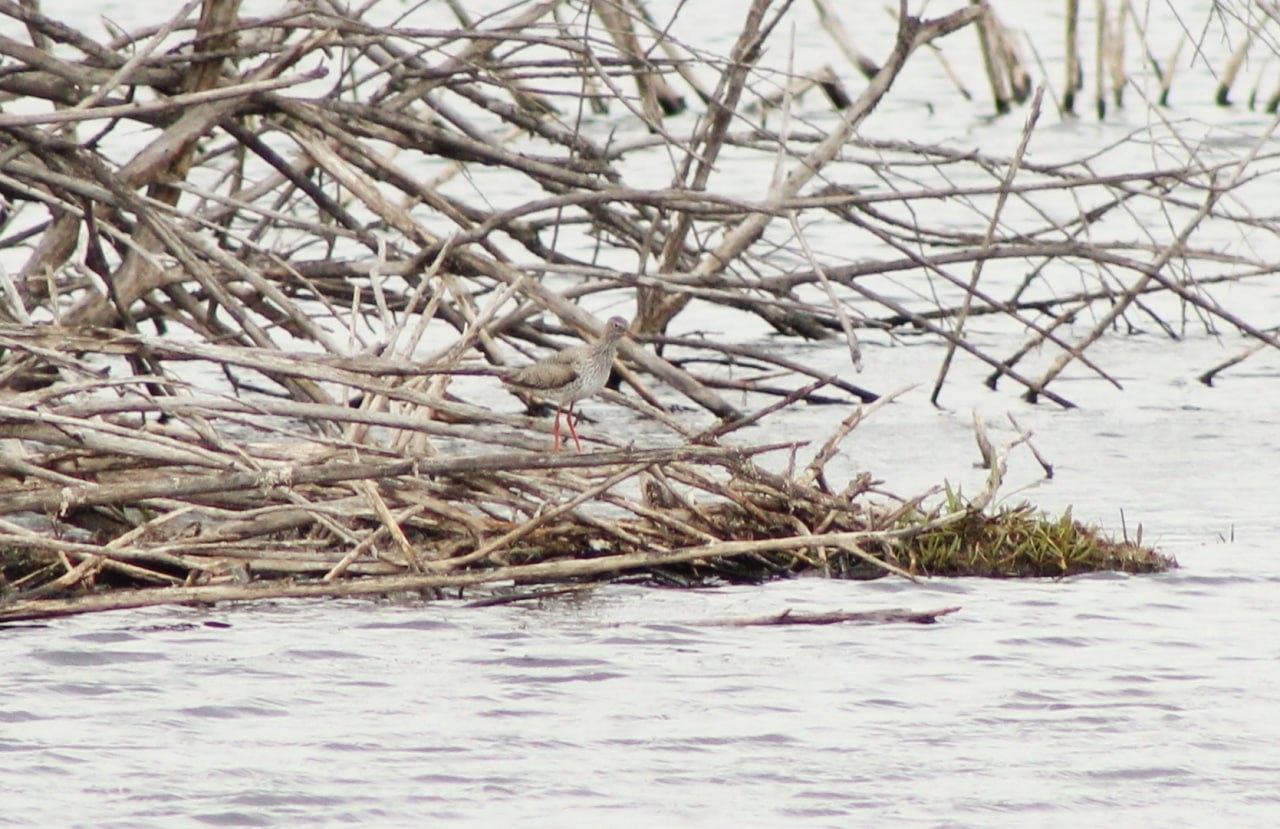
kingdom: Animalia
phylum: Chordata
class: Aves
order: Charadriiformes
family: Scolopacidae
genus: Tringa
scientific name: Tringa totanus
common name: Common redshank
